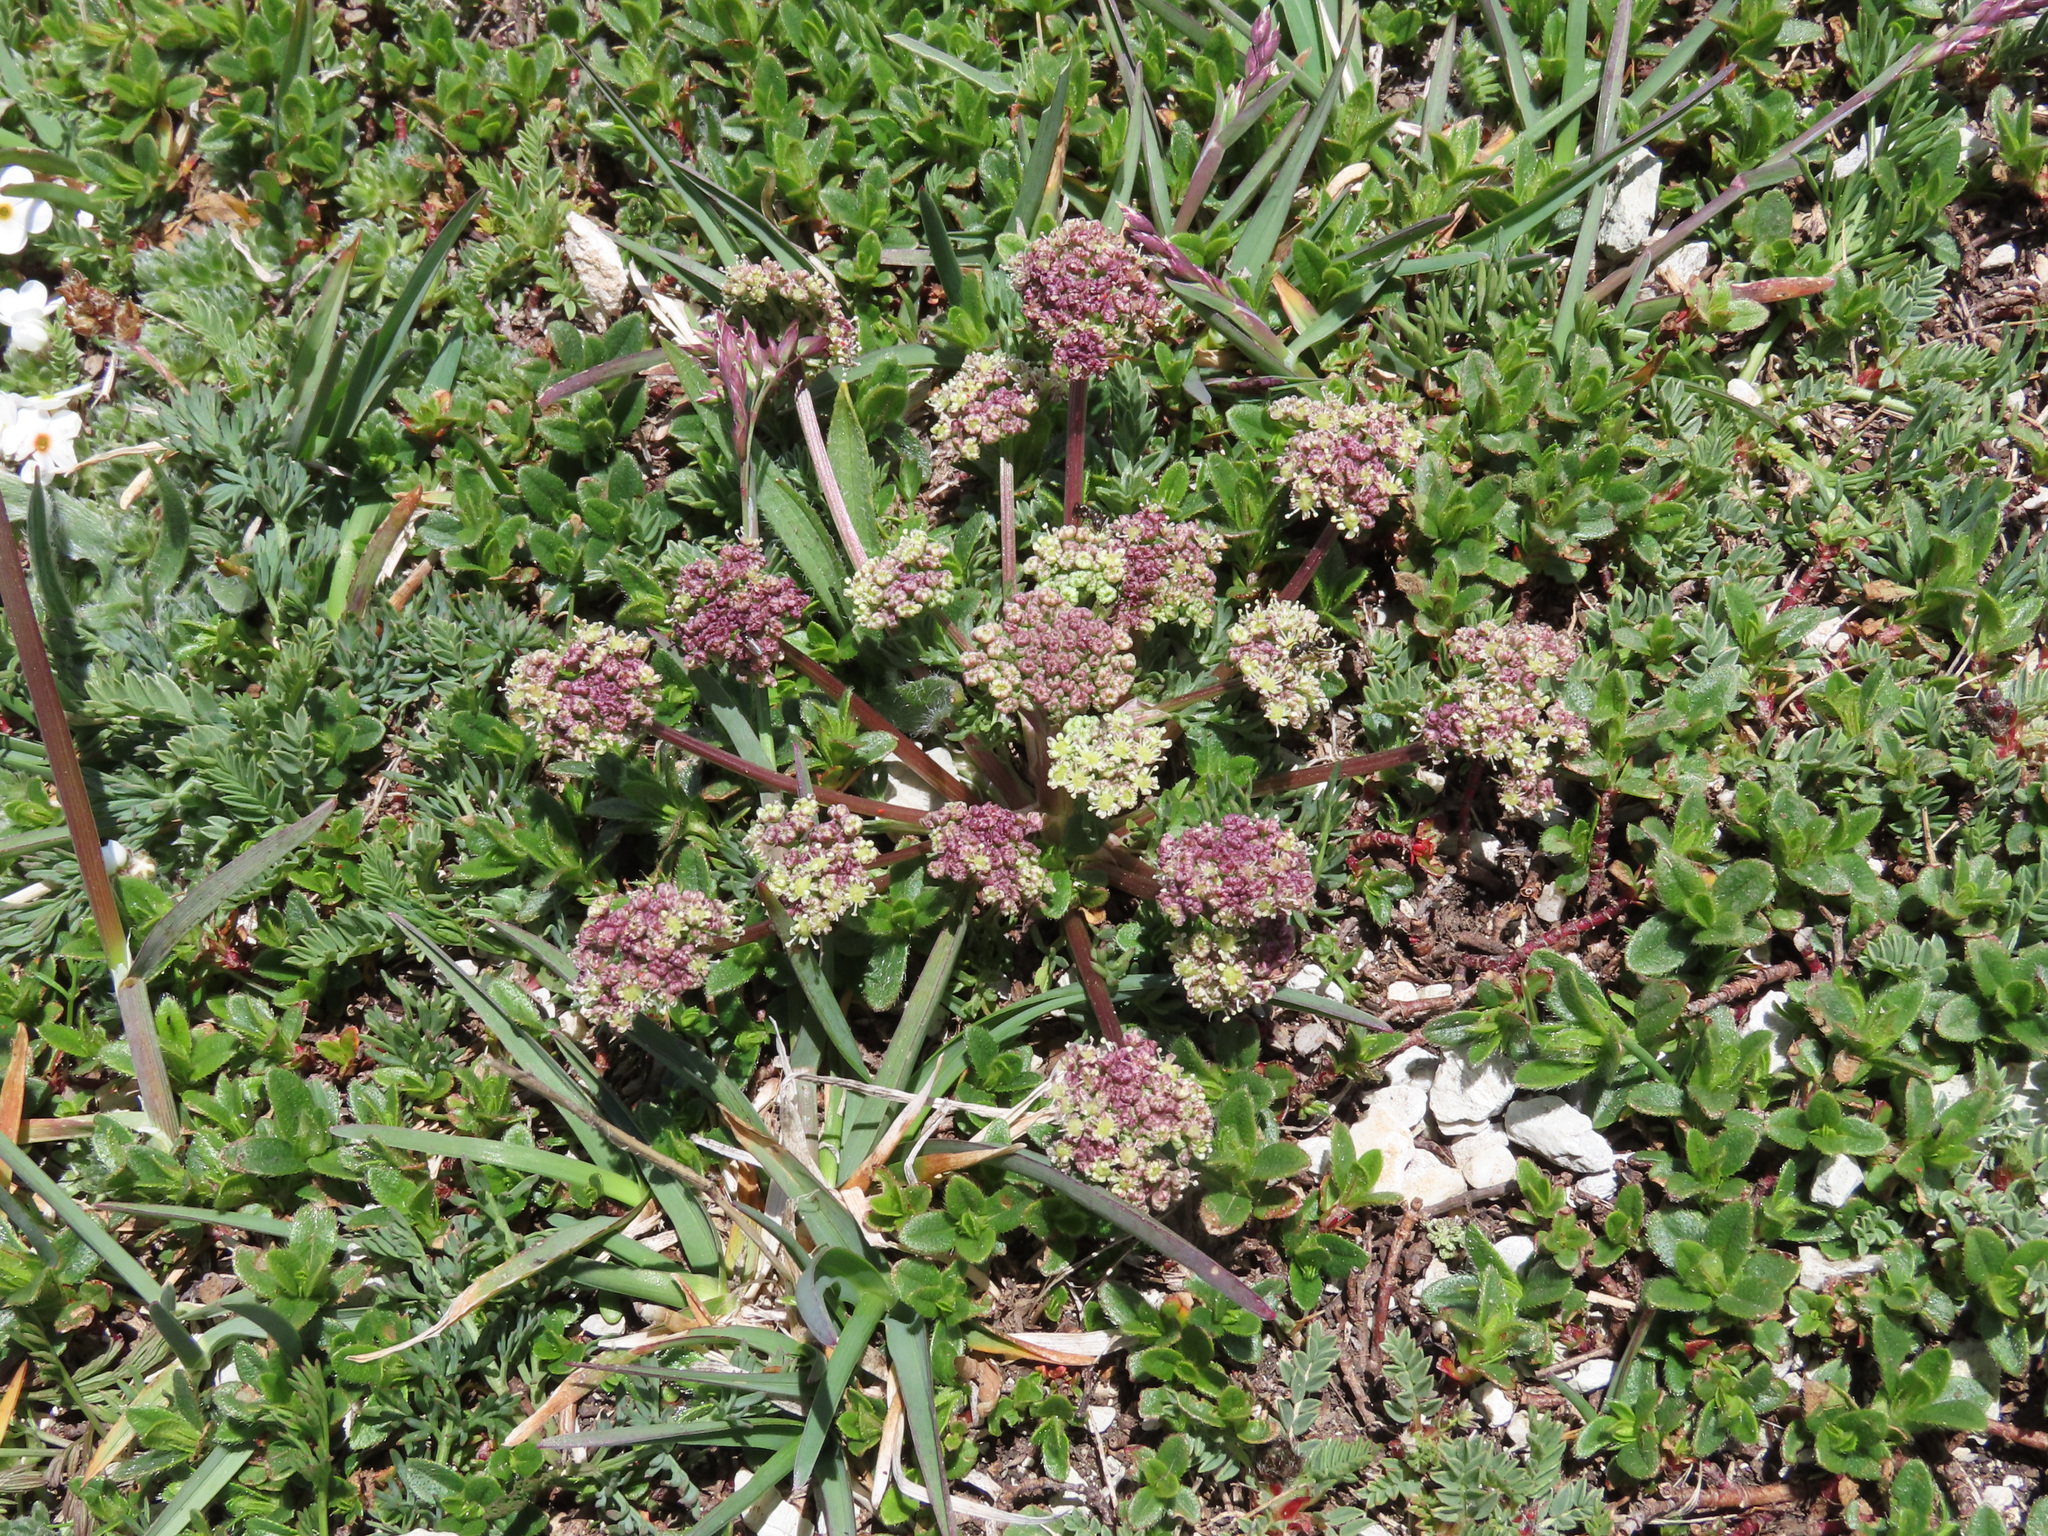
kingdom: Plantae
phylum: Tracheophyta
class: Magnoliopsida
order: Apiales
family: Apiaceae
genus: Trinia
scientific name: Trinia dalechampii
